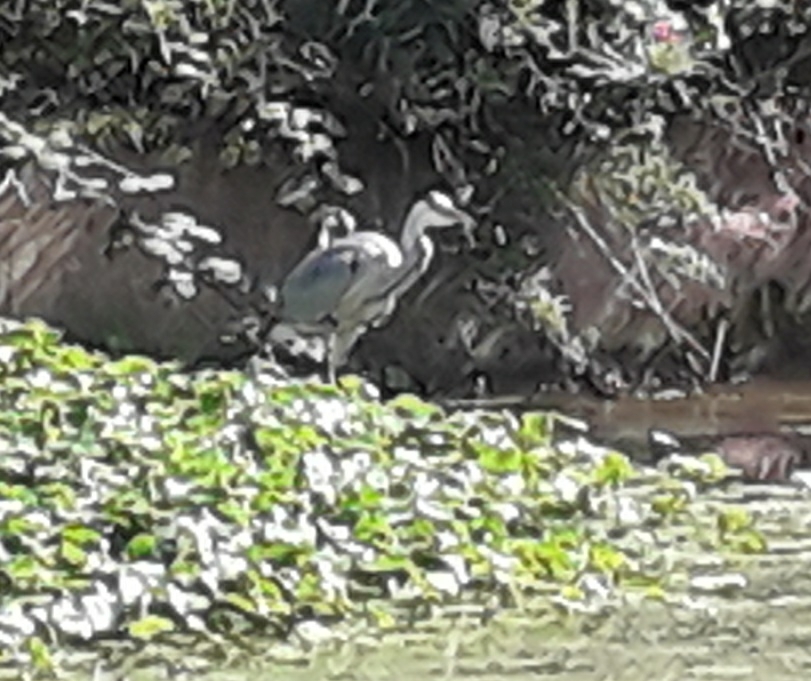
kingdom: Animalia
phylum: Chordata
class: Aves
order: Pelecaniformes
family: Ardeidae
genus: Ardea
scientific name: Ardea cinerea
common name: Grey heron
